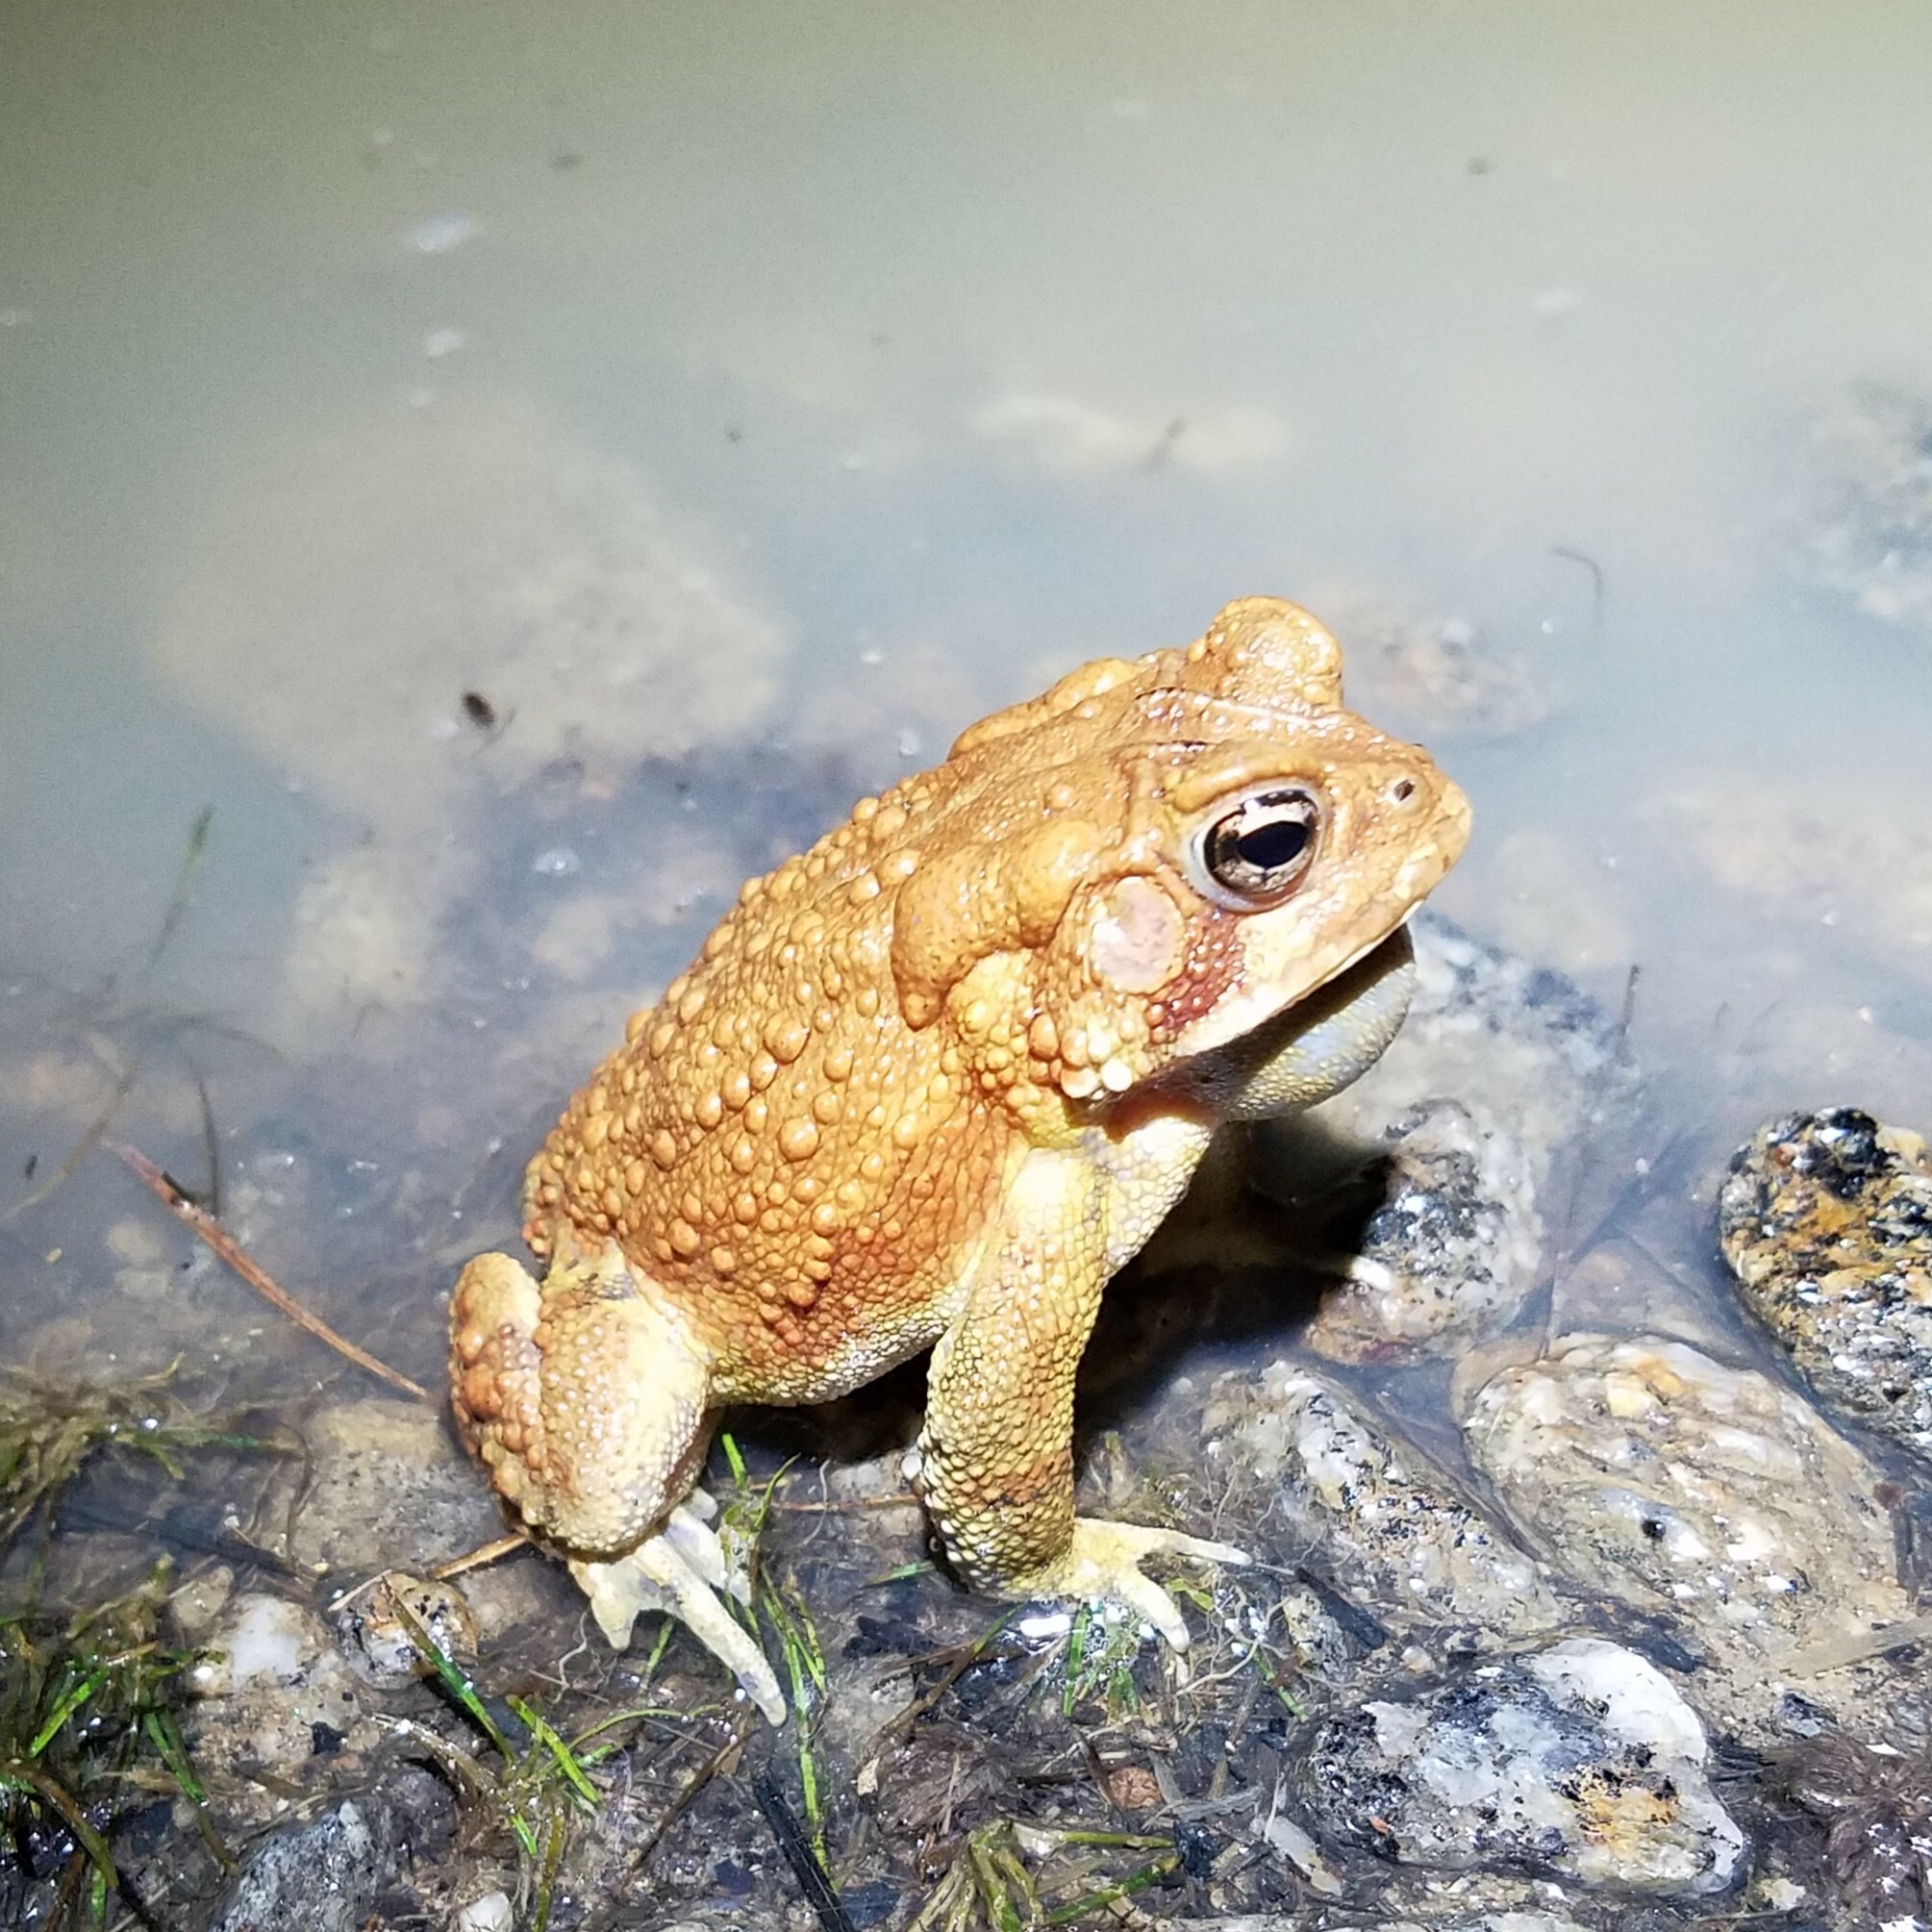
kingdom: Animalia
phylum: Chordata
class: Amphibia
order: Anura
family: Bufonidae
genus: Anaxyrus
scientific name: Anaxyrus americanus
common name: American toad
